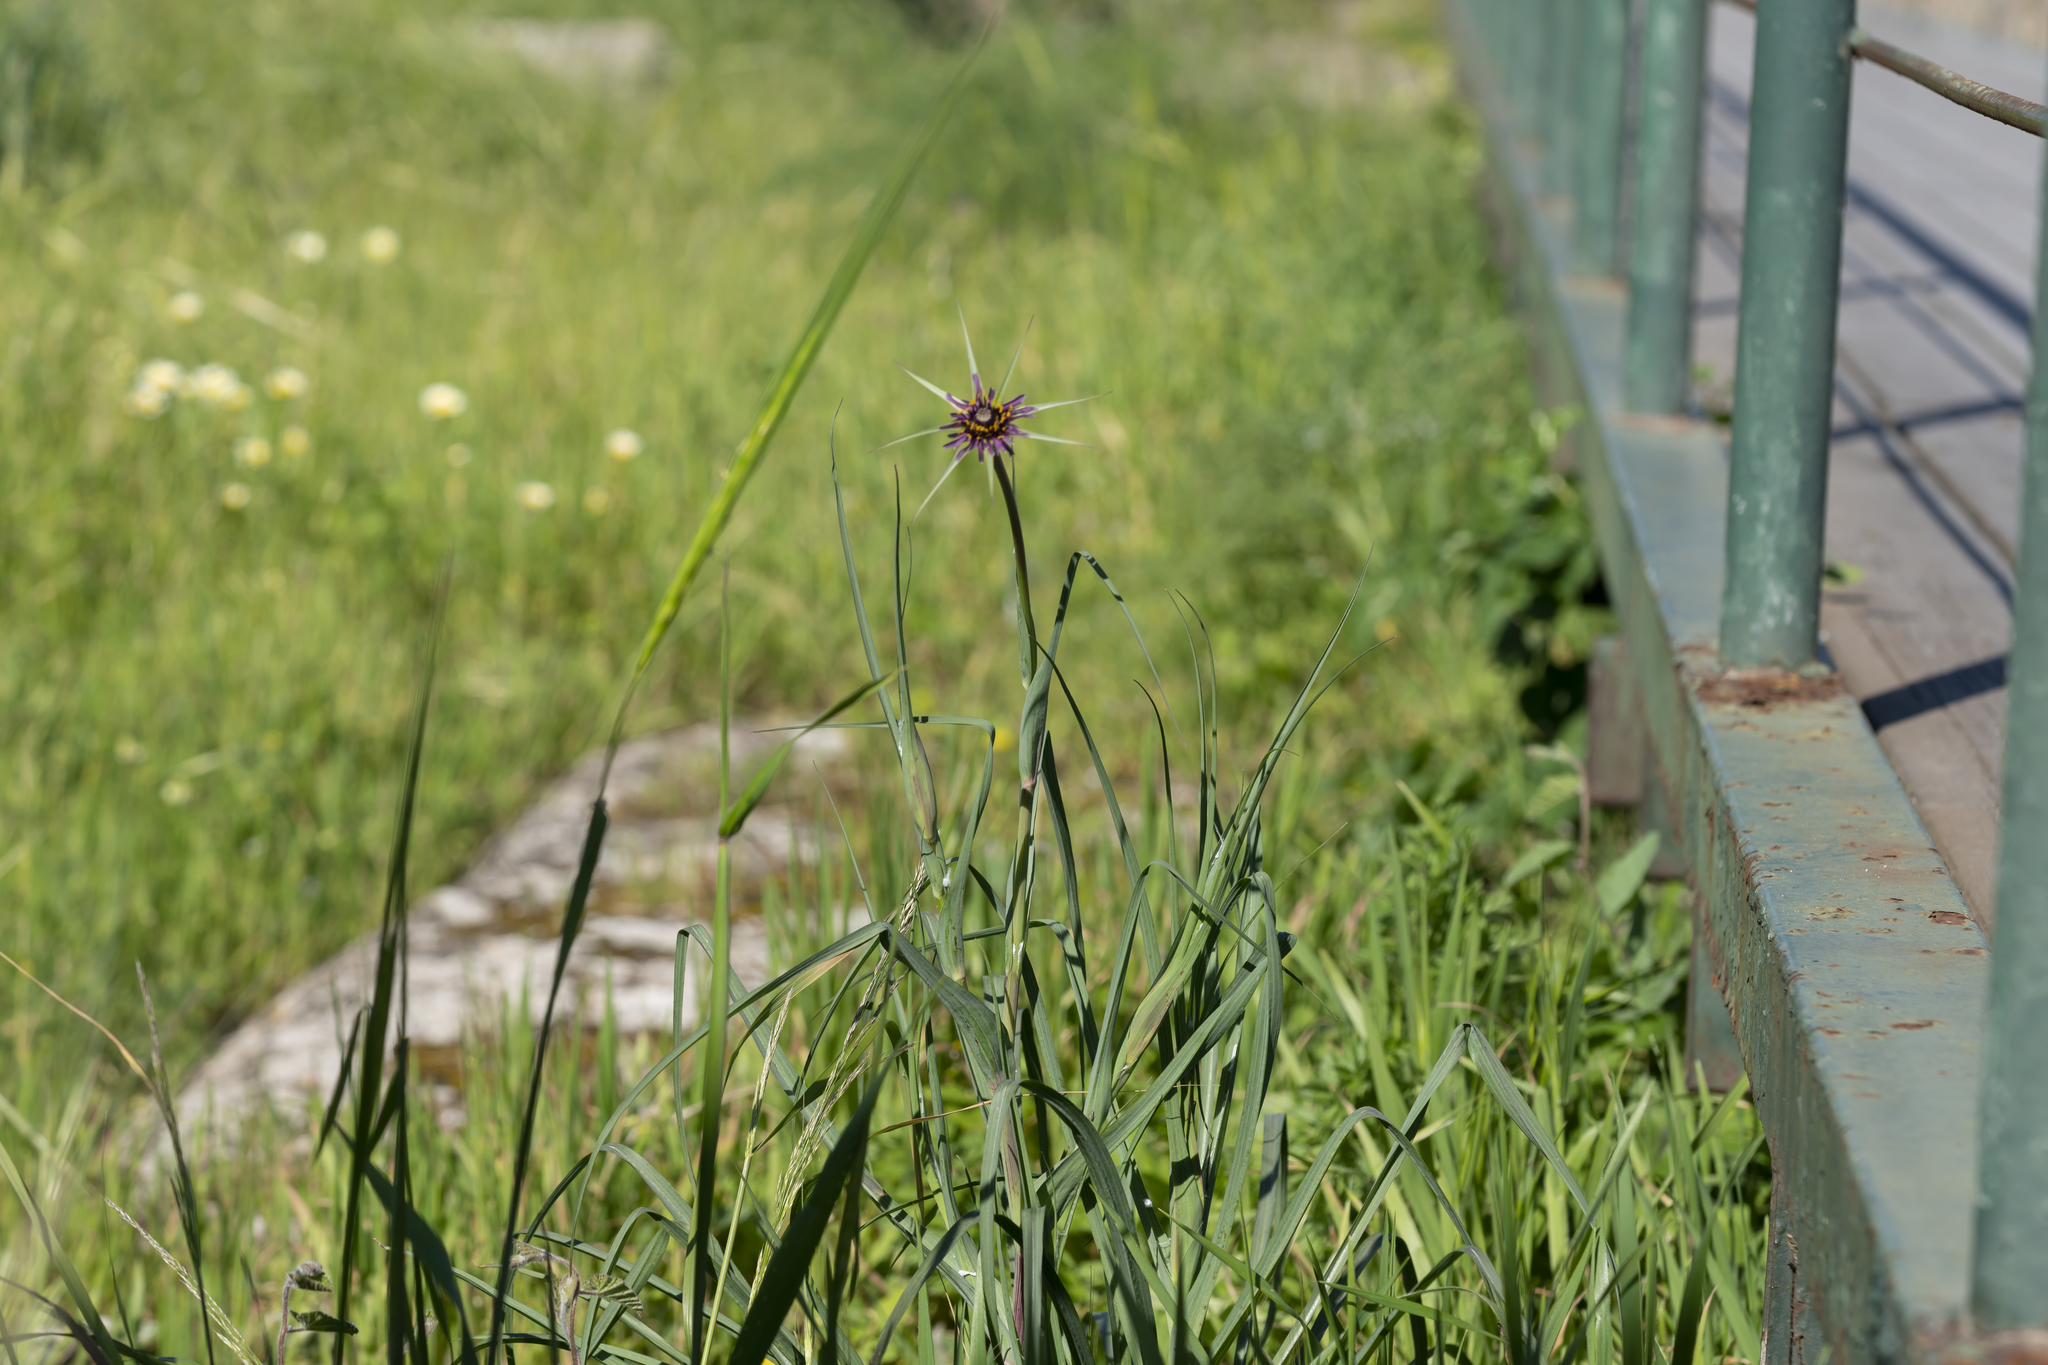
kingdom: Plantae
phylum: Tracheophyta
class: Magnoliopsida
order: Asterales
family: Asteraceae
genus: Tragopogon
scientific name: Tragopogon coelesyriacus
